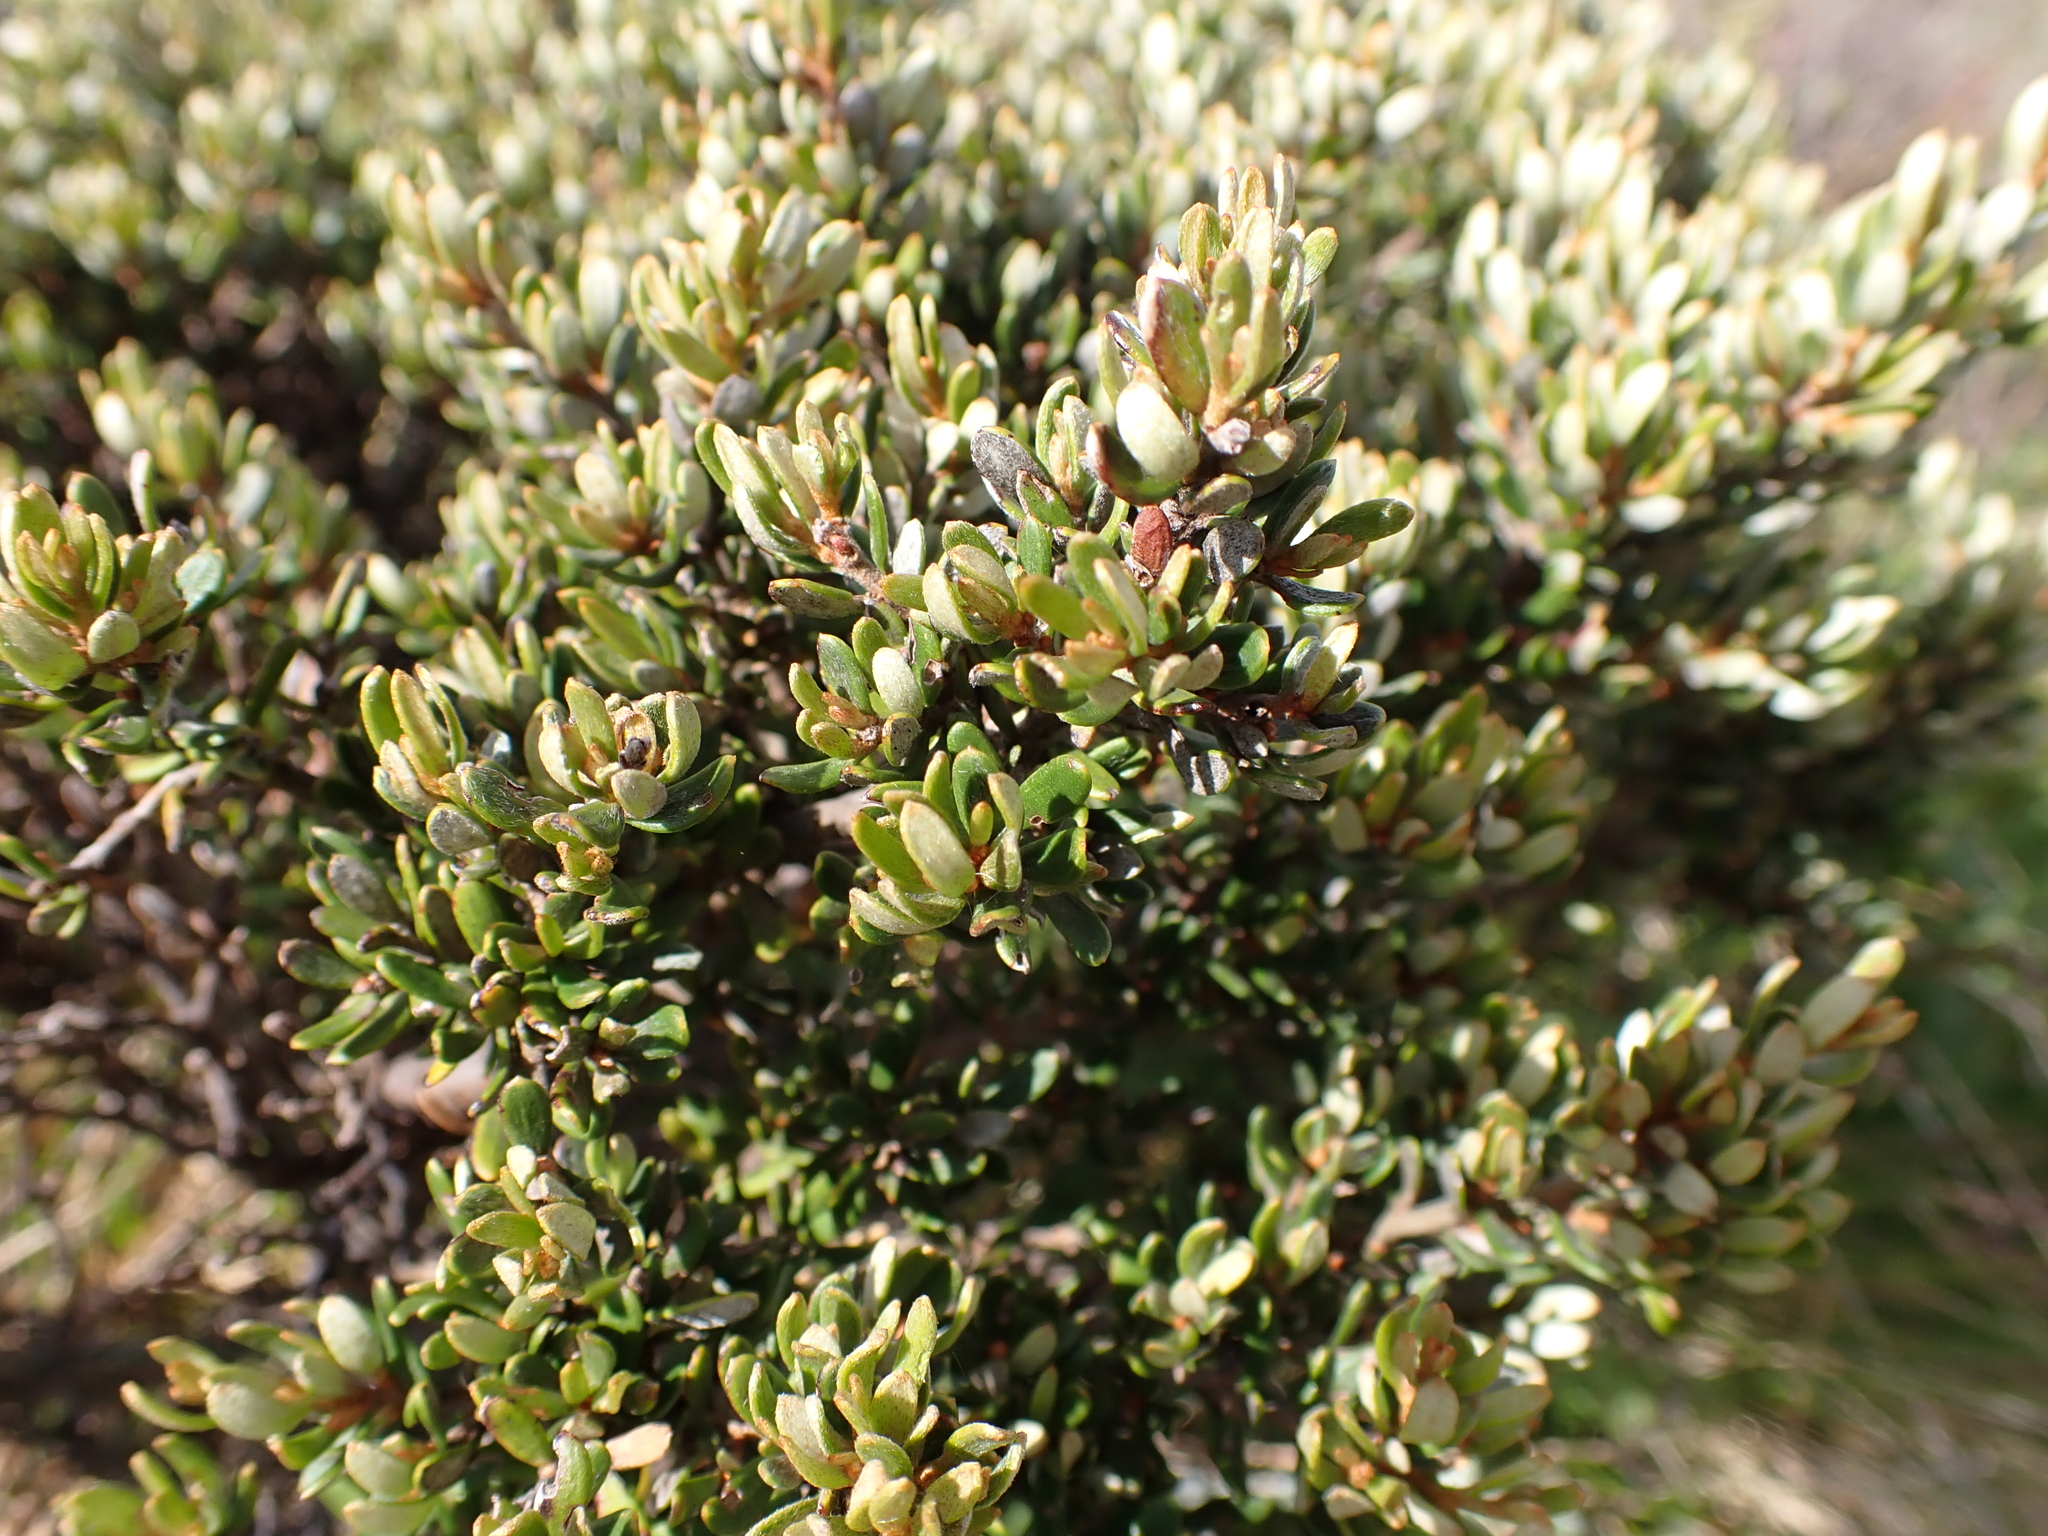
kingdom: Plantae
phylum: Tracheophyta
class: Magnoliopsida
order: Proteales
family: Proteaceae
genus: Grevillea
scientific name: Grevillea australis
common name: Alpine grevillea
